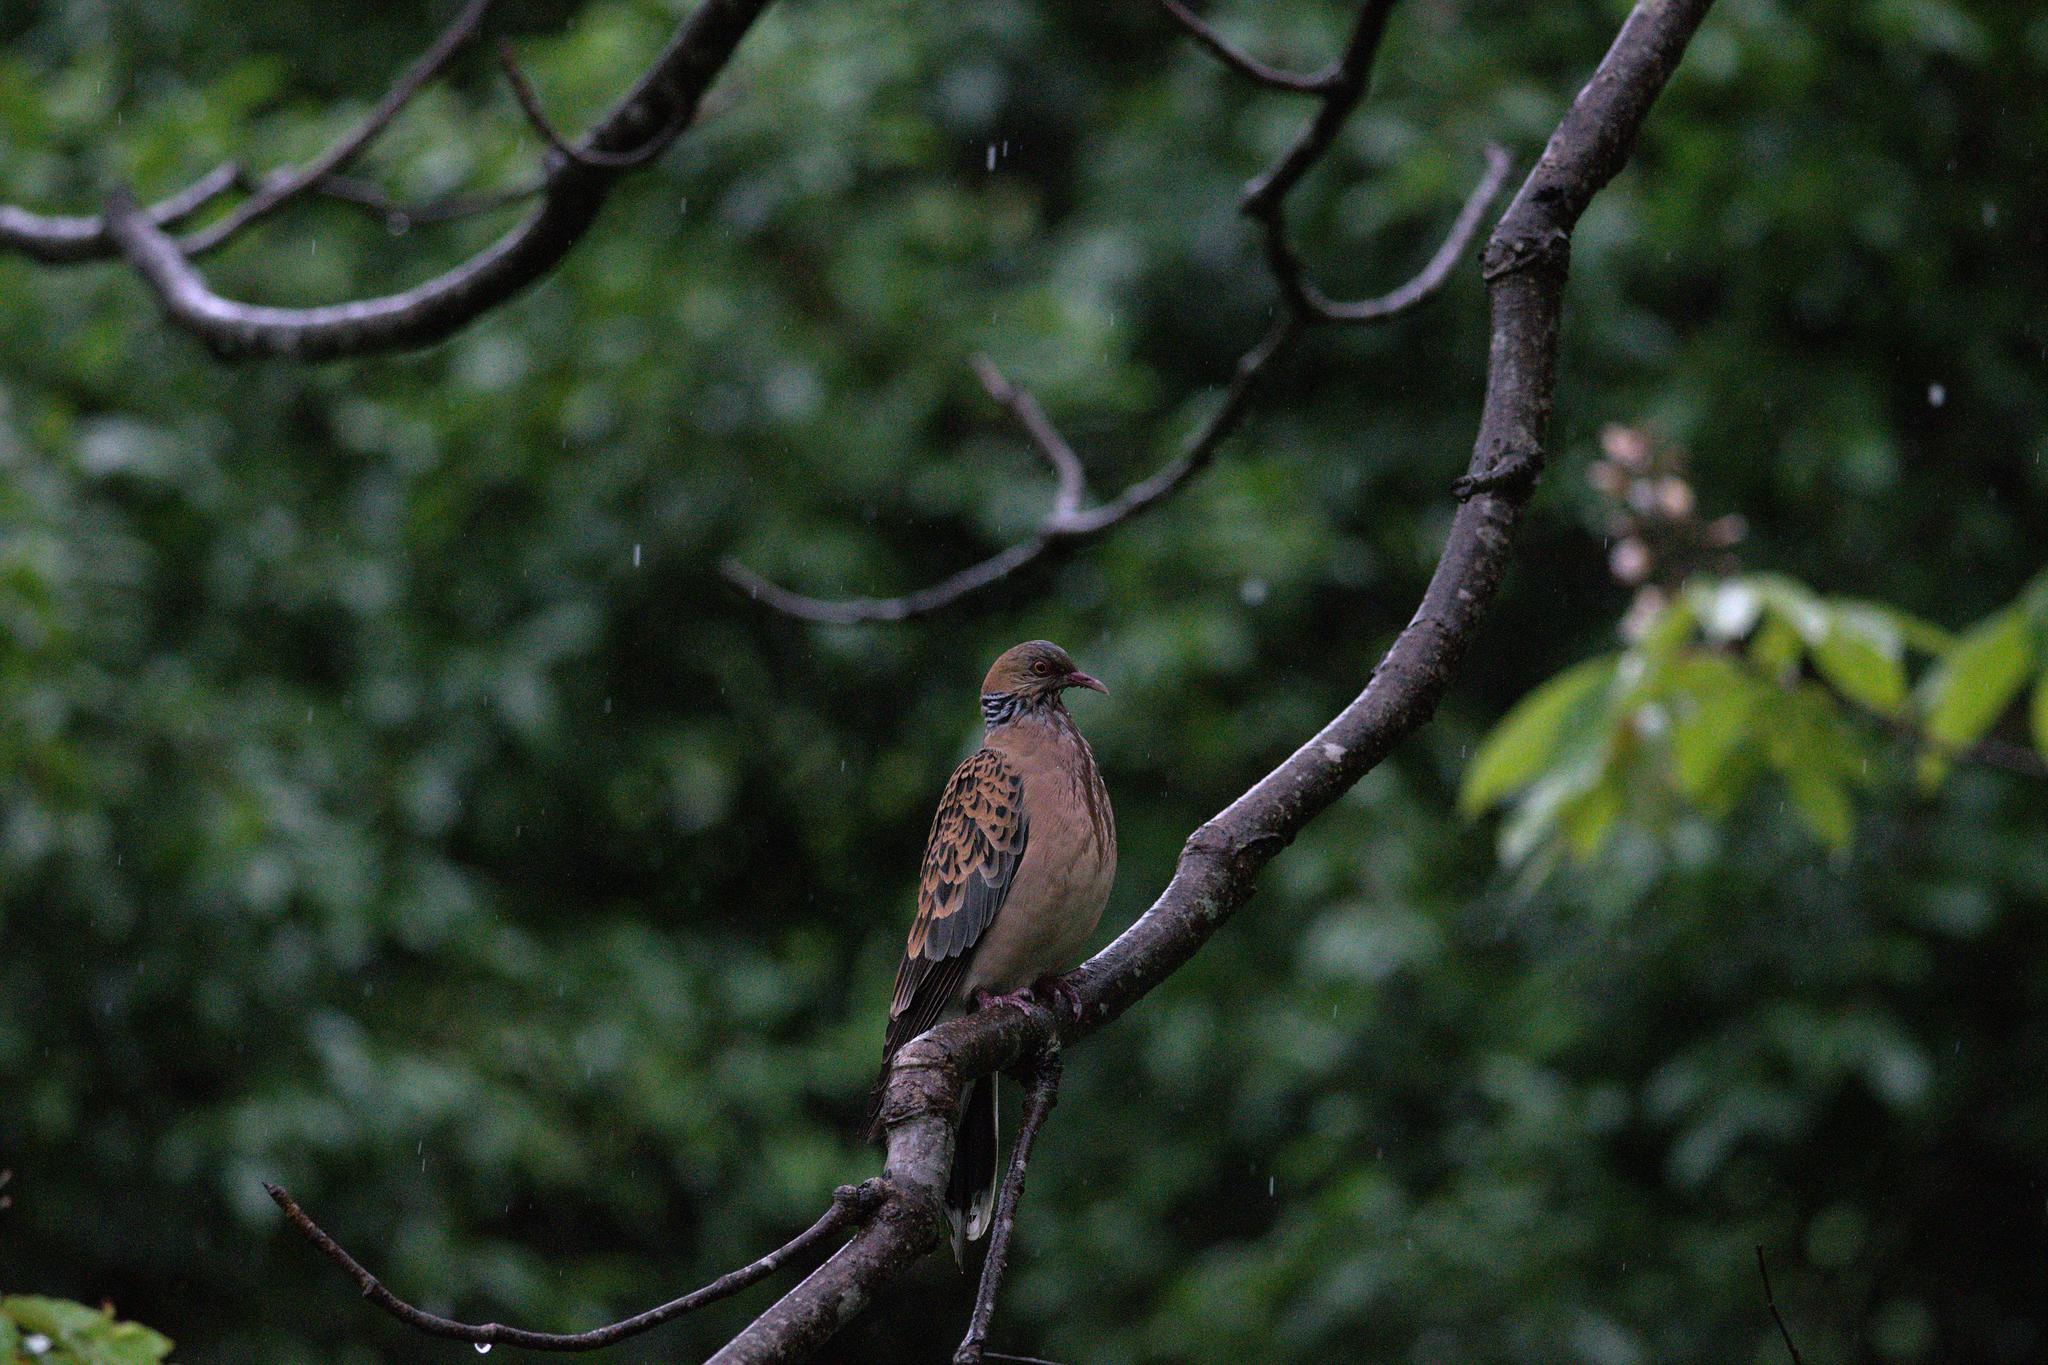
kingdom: Animalia
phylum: Chordata
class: Aves
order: Columbiformes
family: Columbidae
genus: Streptopelia
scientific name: Streptopelia orientalis
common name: Oriental turtle dove
